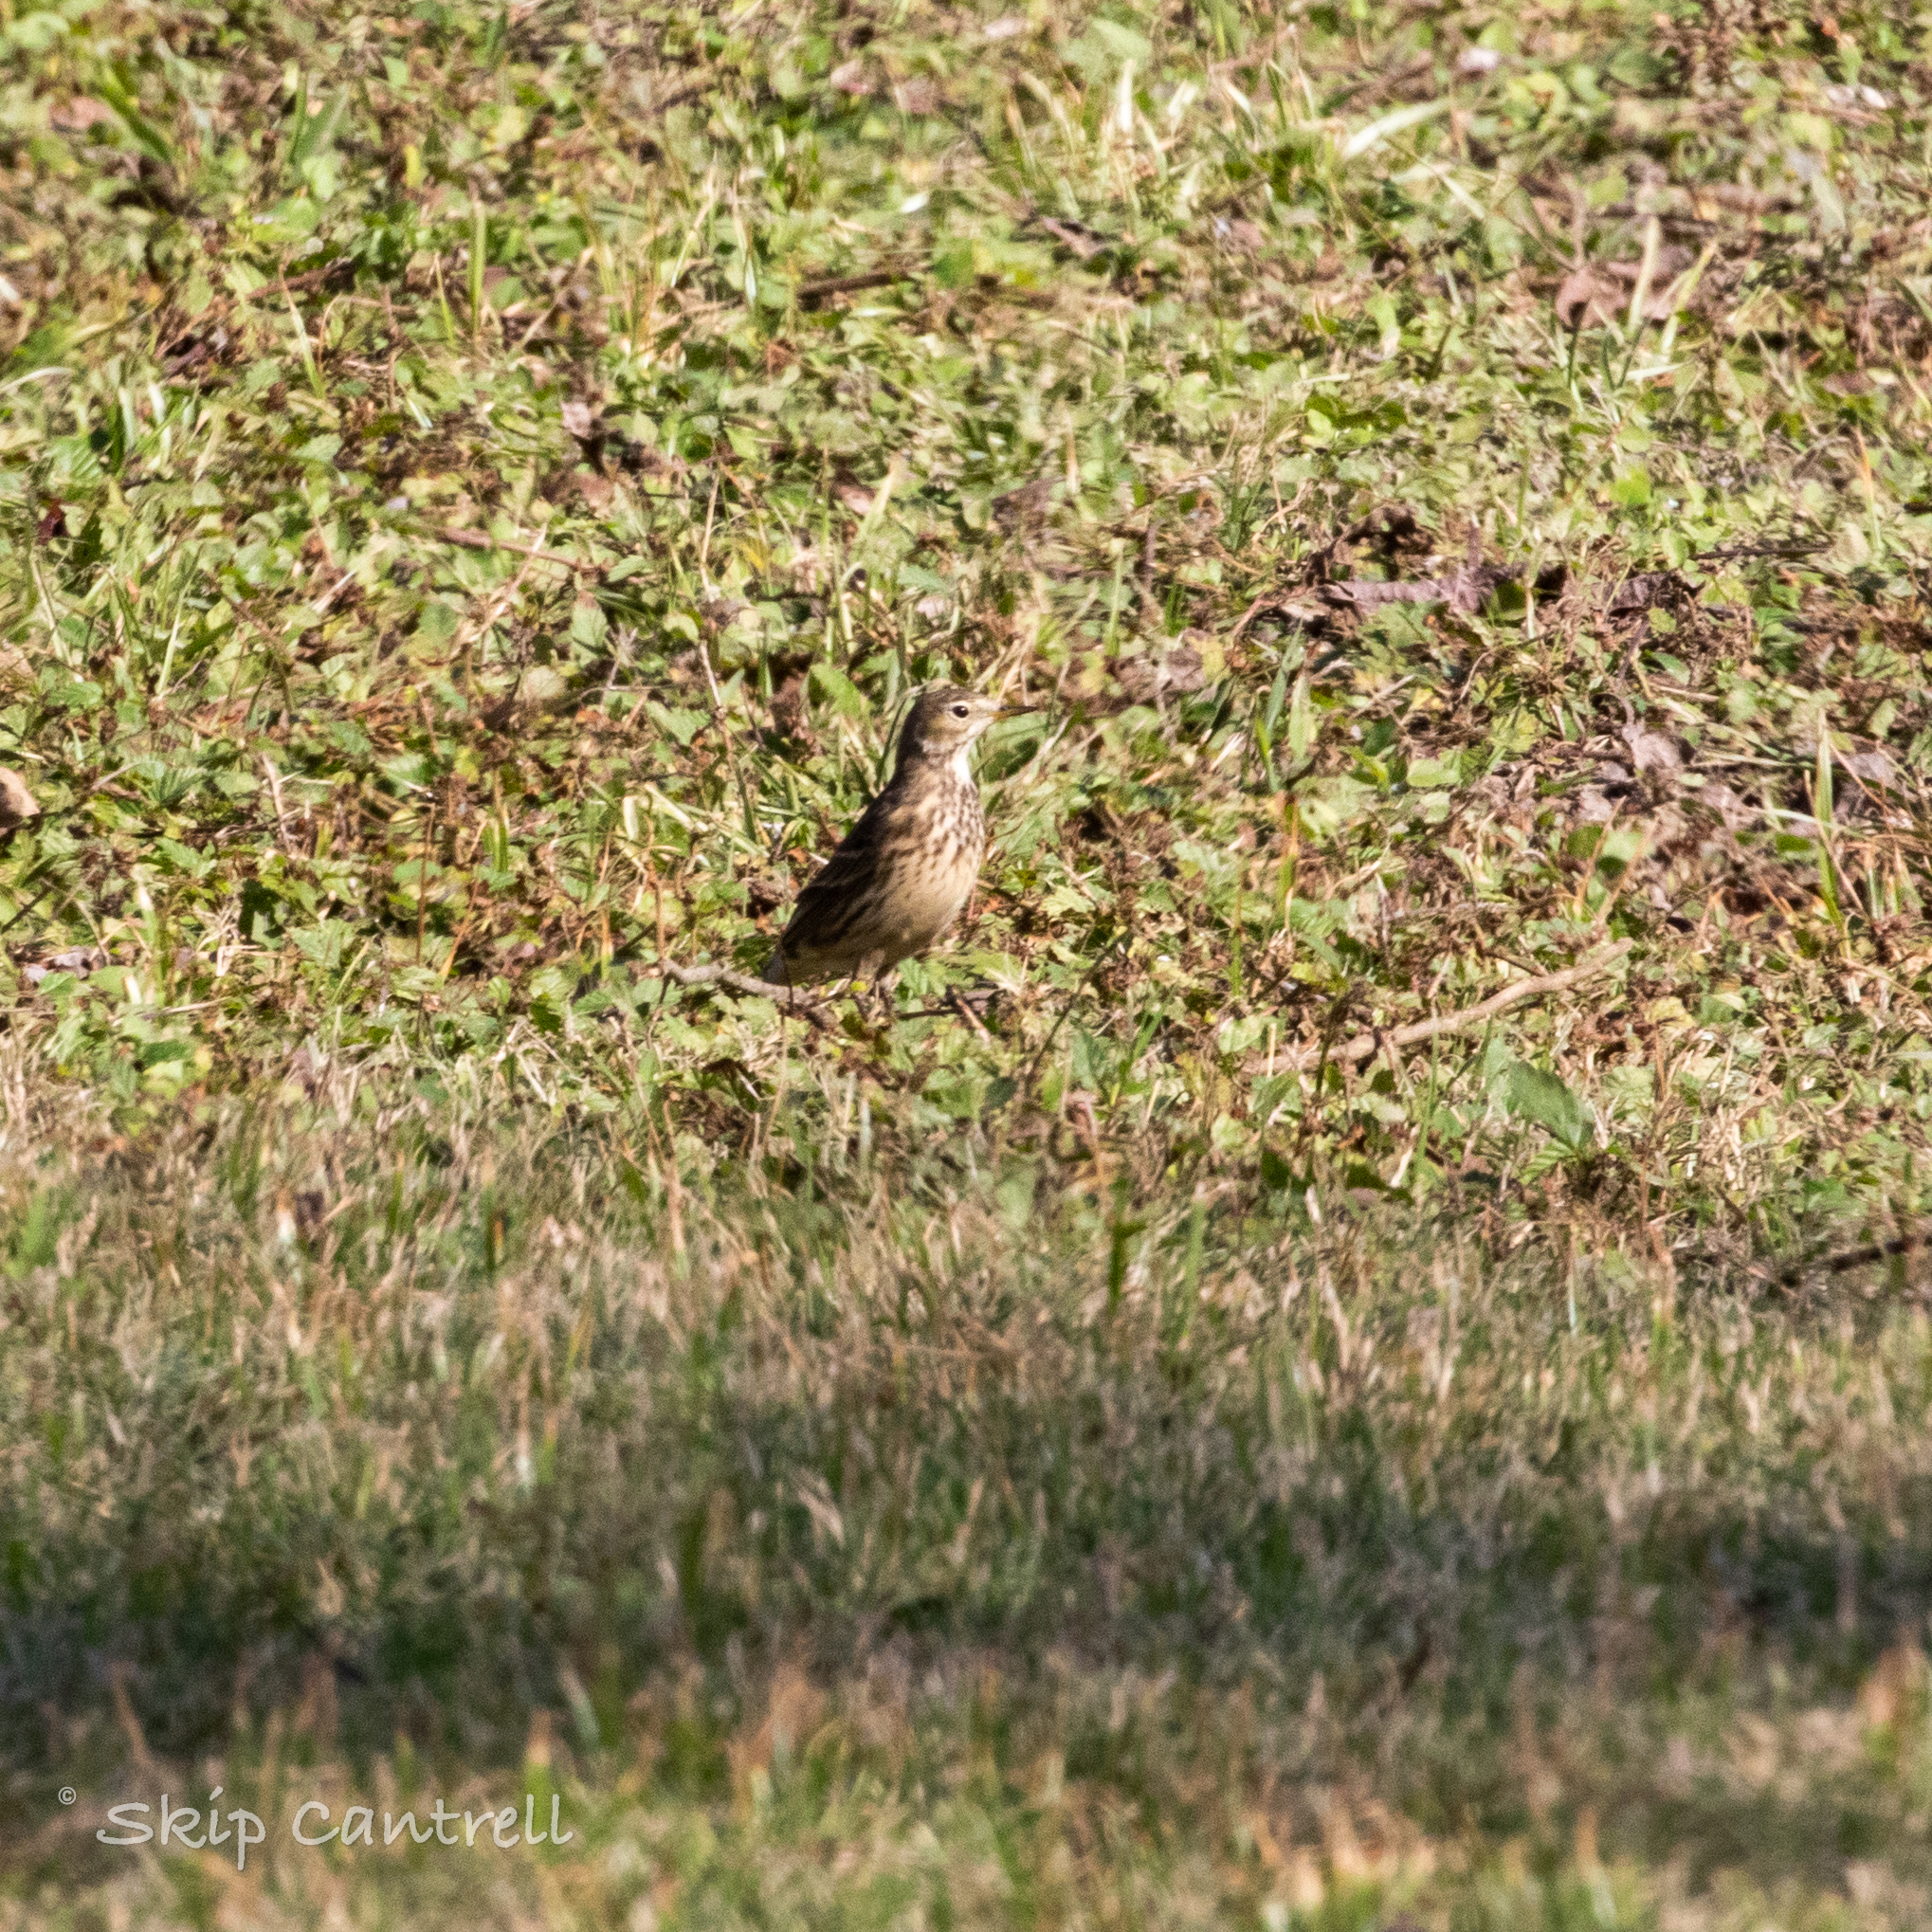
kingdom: Animalia
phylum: Chordata
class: Aves
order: Passeriformes
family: Motacillidae
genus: Anthus
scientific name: Anthus rubescens
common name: Buff-bellied pipit
